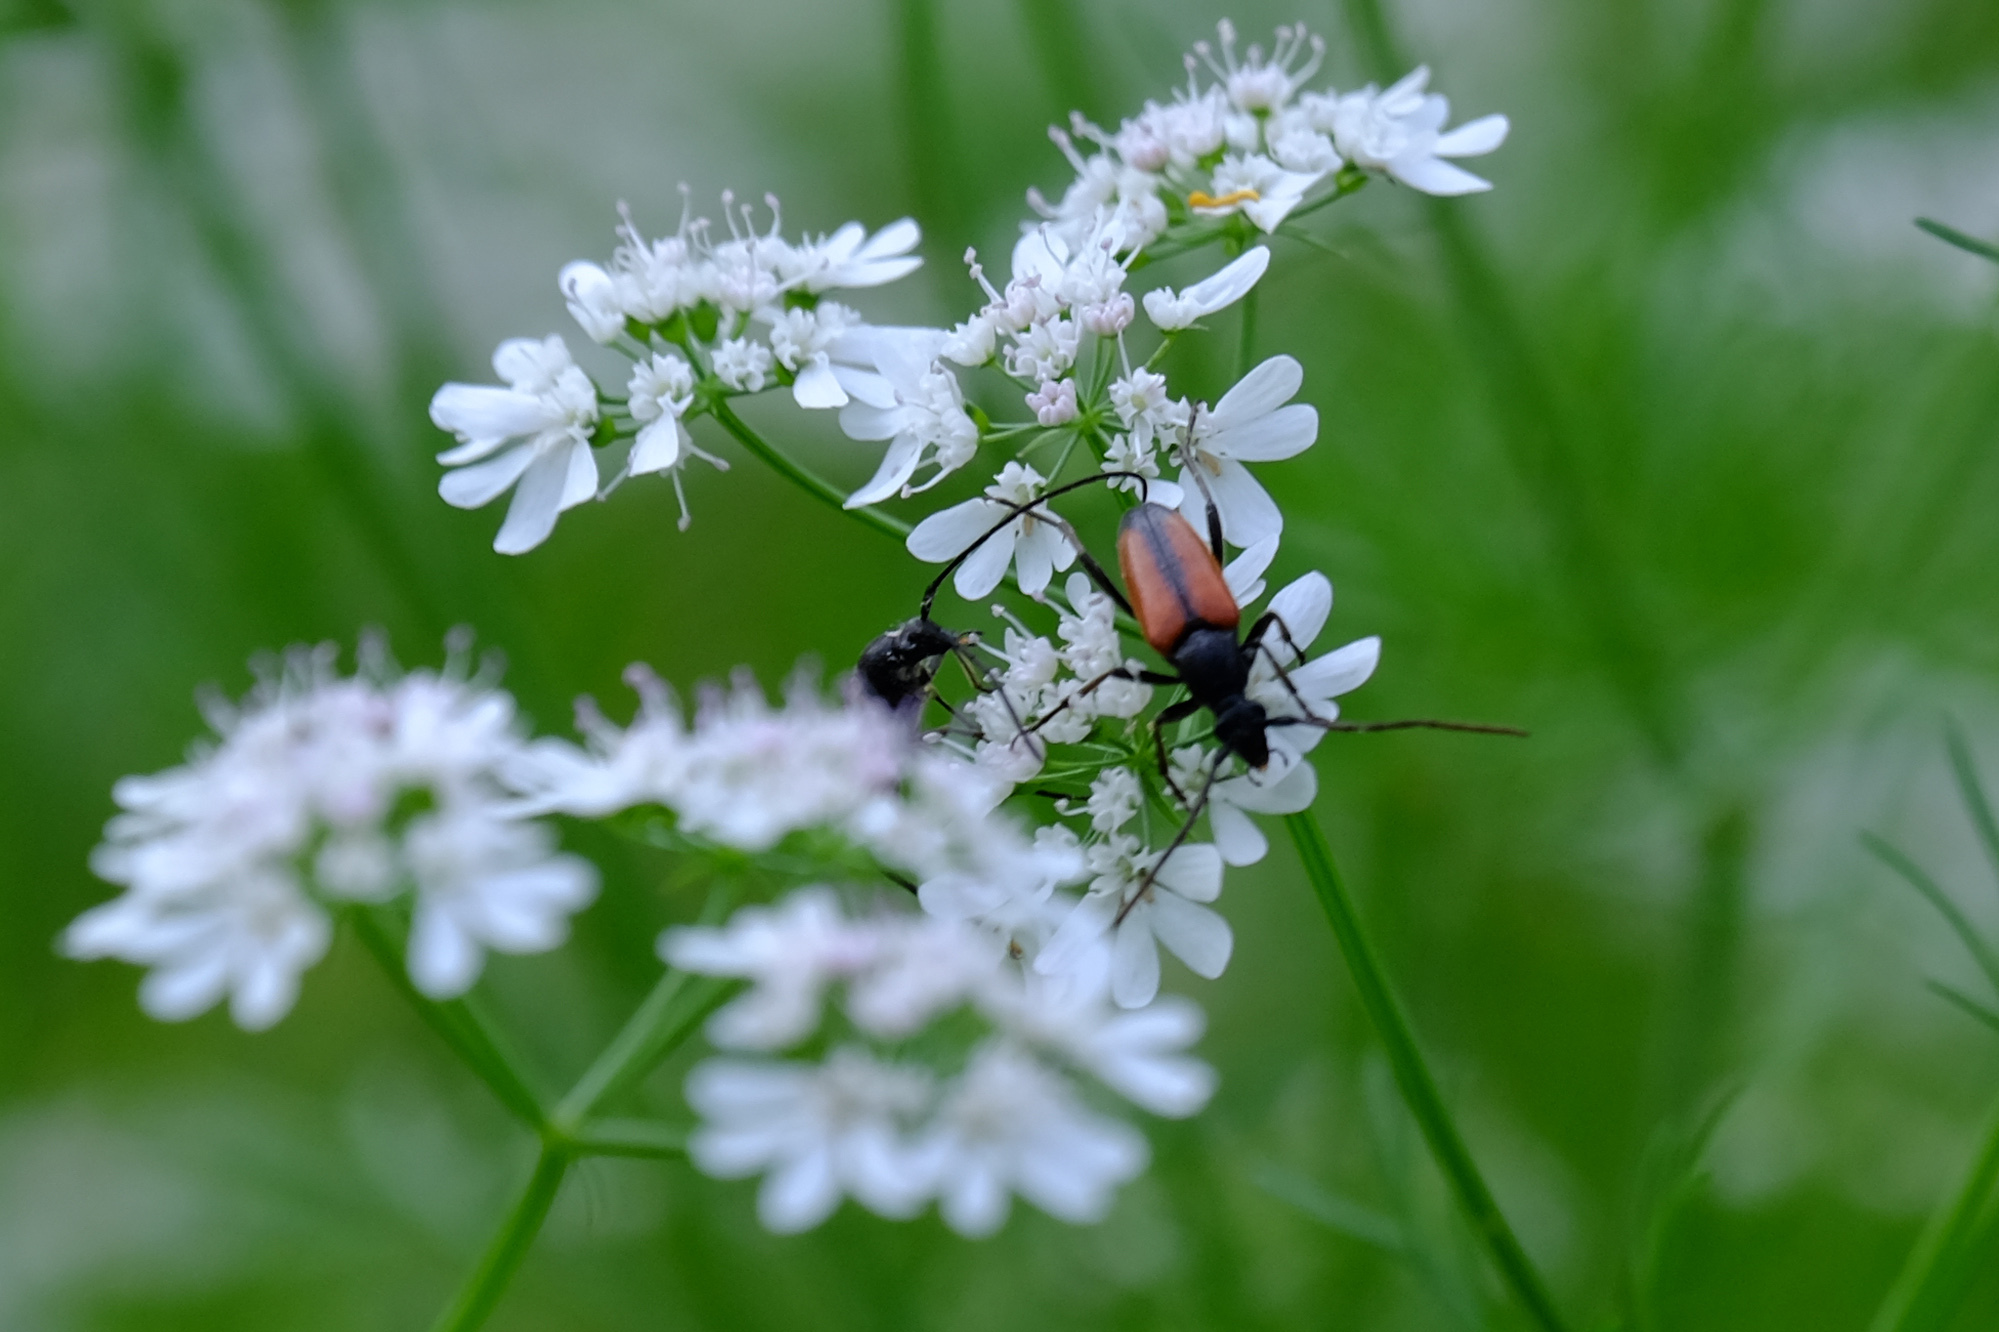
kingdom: Animalia
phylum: Arthropoda
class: Insecta
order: Coleoptera
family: Cerambycidae
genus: Stenurella
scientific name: Stenurella melanura
